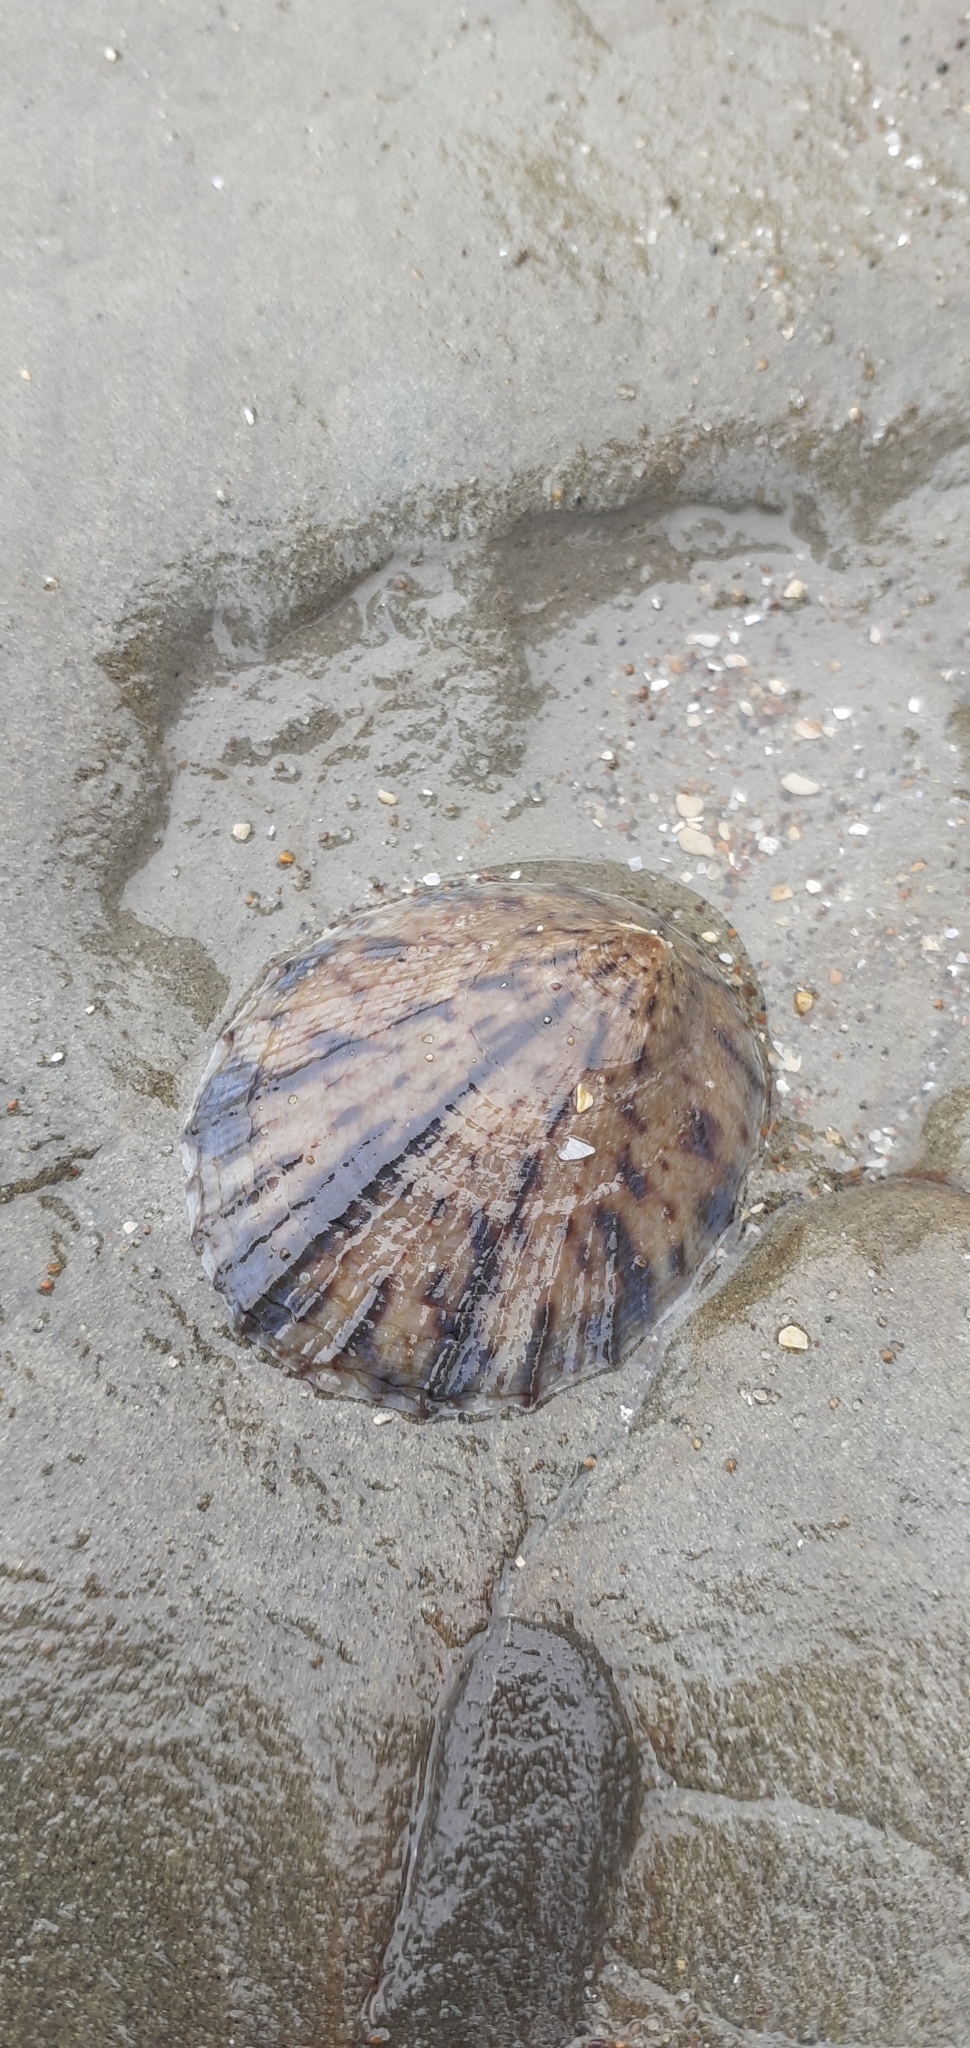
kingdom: Animalia
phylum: Mollusca
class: Gastropoda
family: Nacellidae
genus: Cellana
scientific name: Cellana radians
